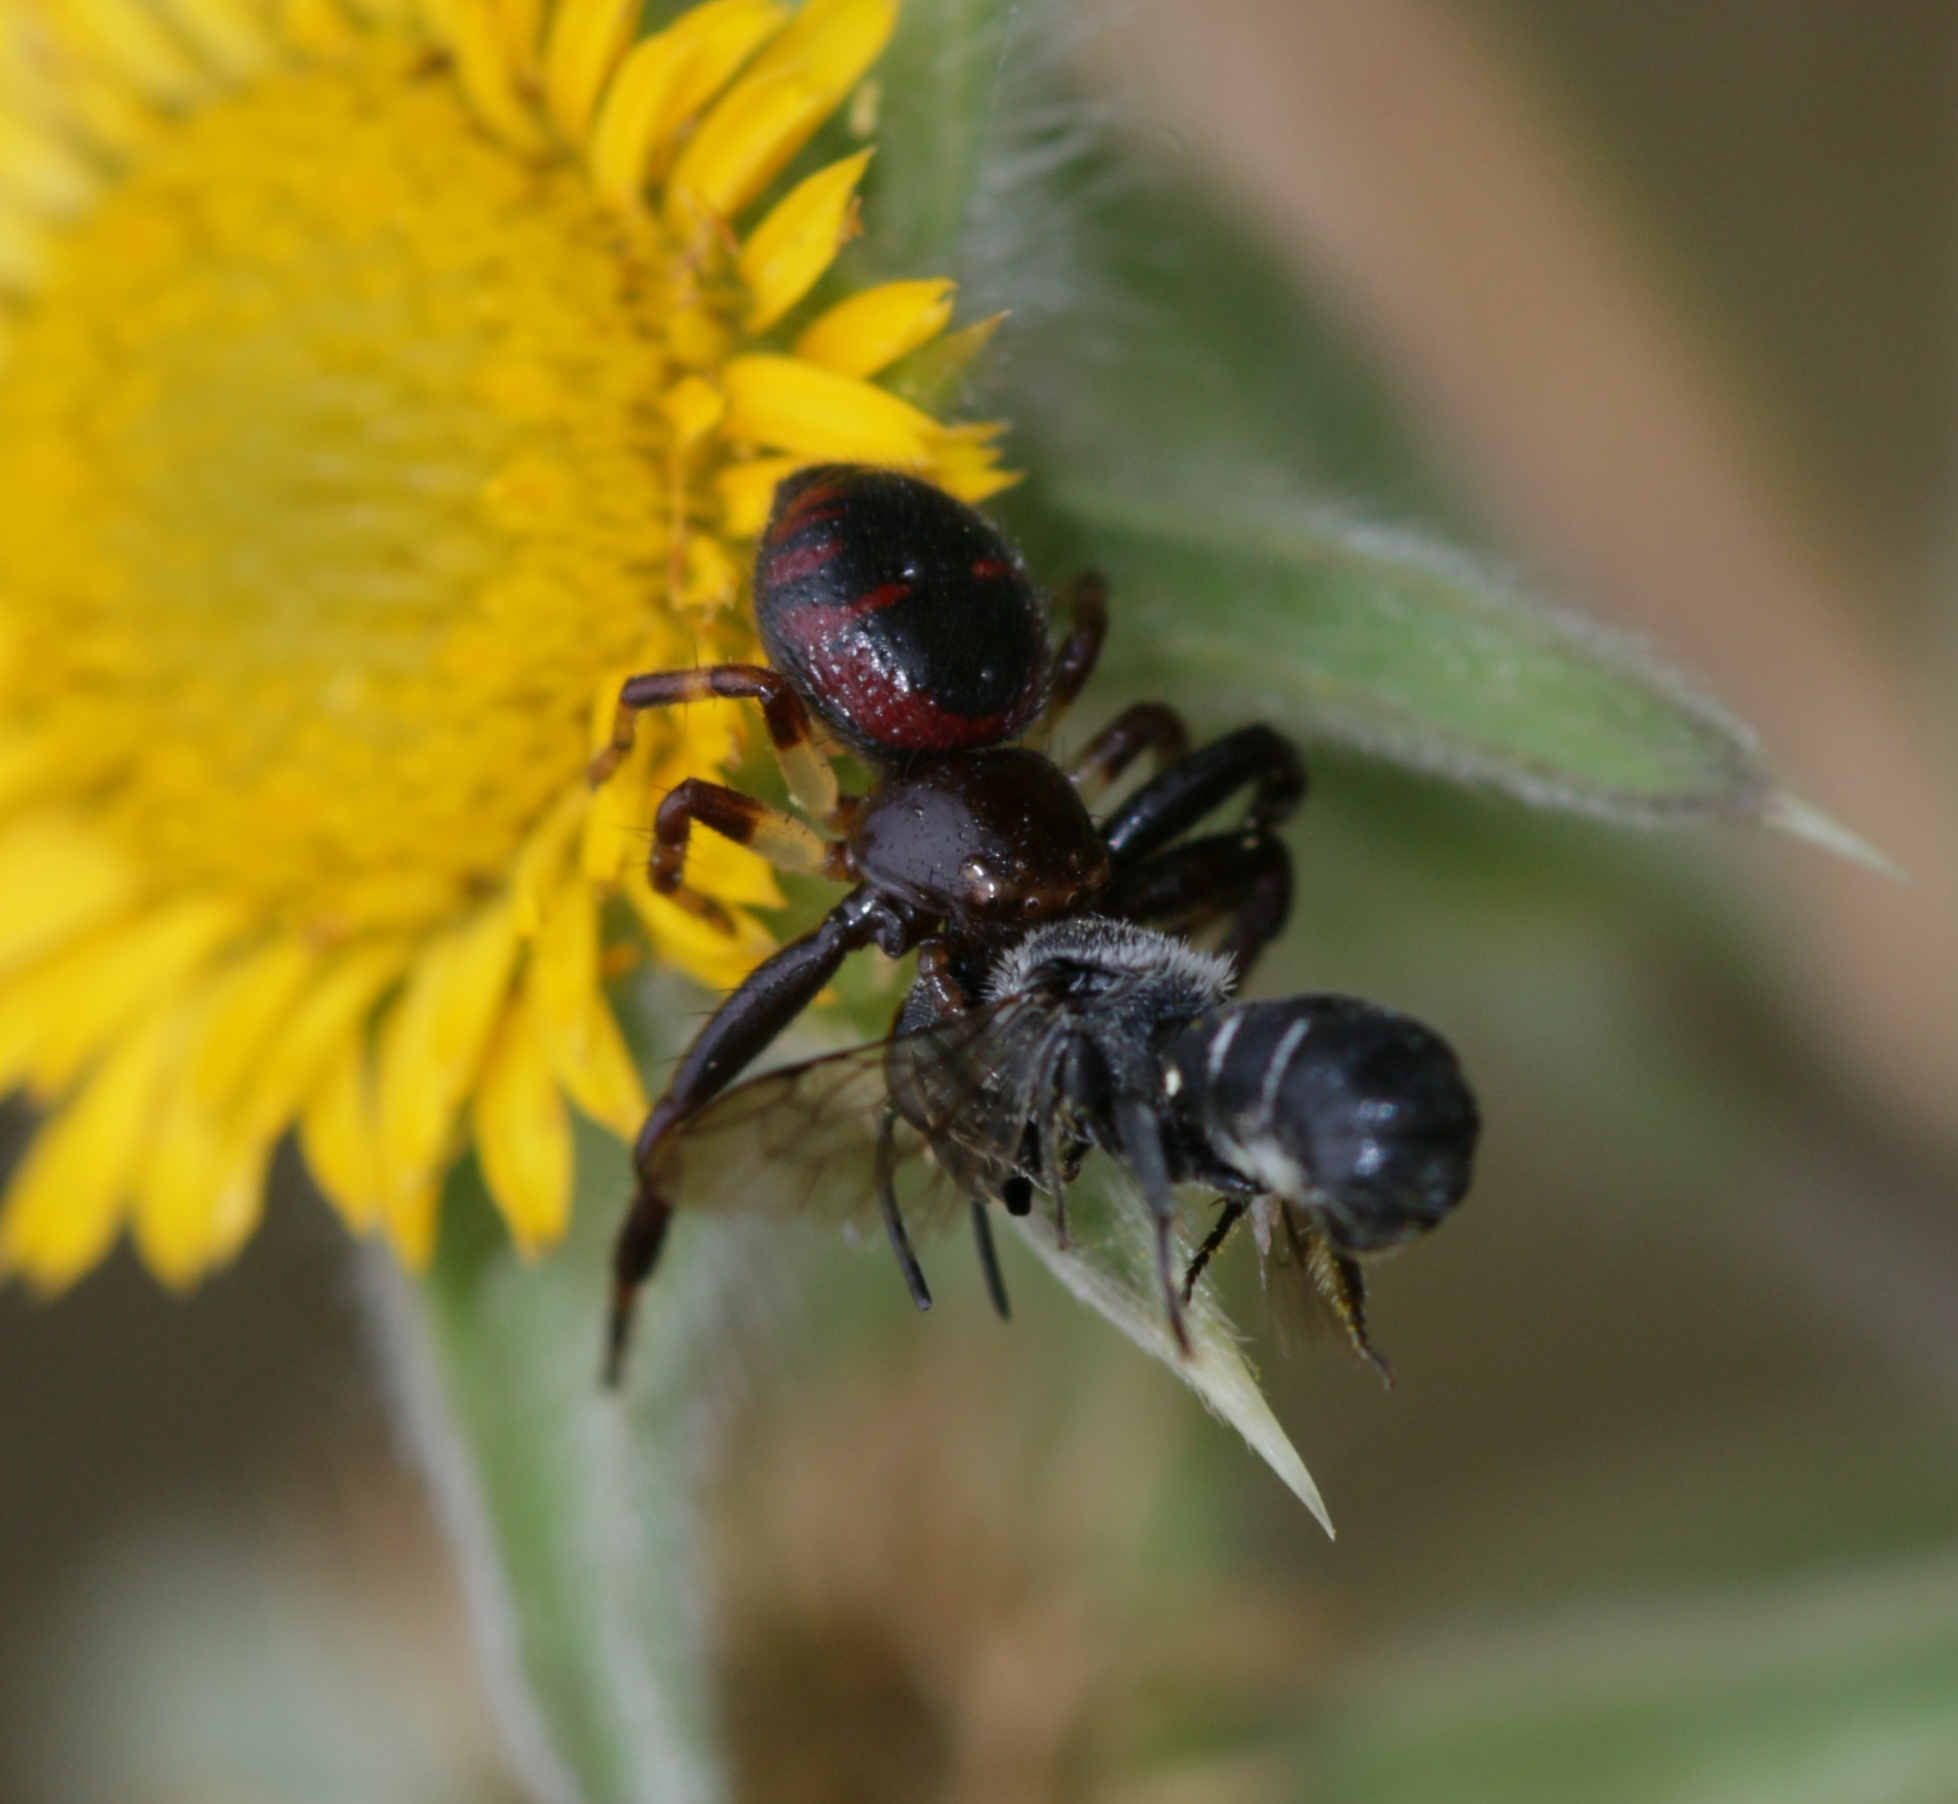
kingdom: Animalia
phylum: Arthropoda
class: Arachnida
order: Araneae
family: Thomisidae
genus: Synema
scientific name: Synema globosum
